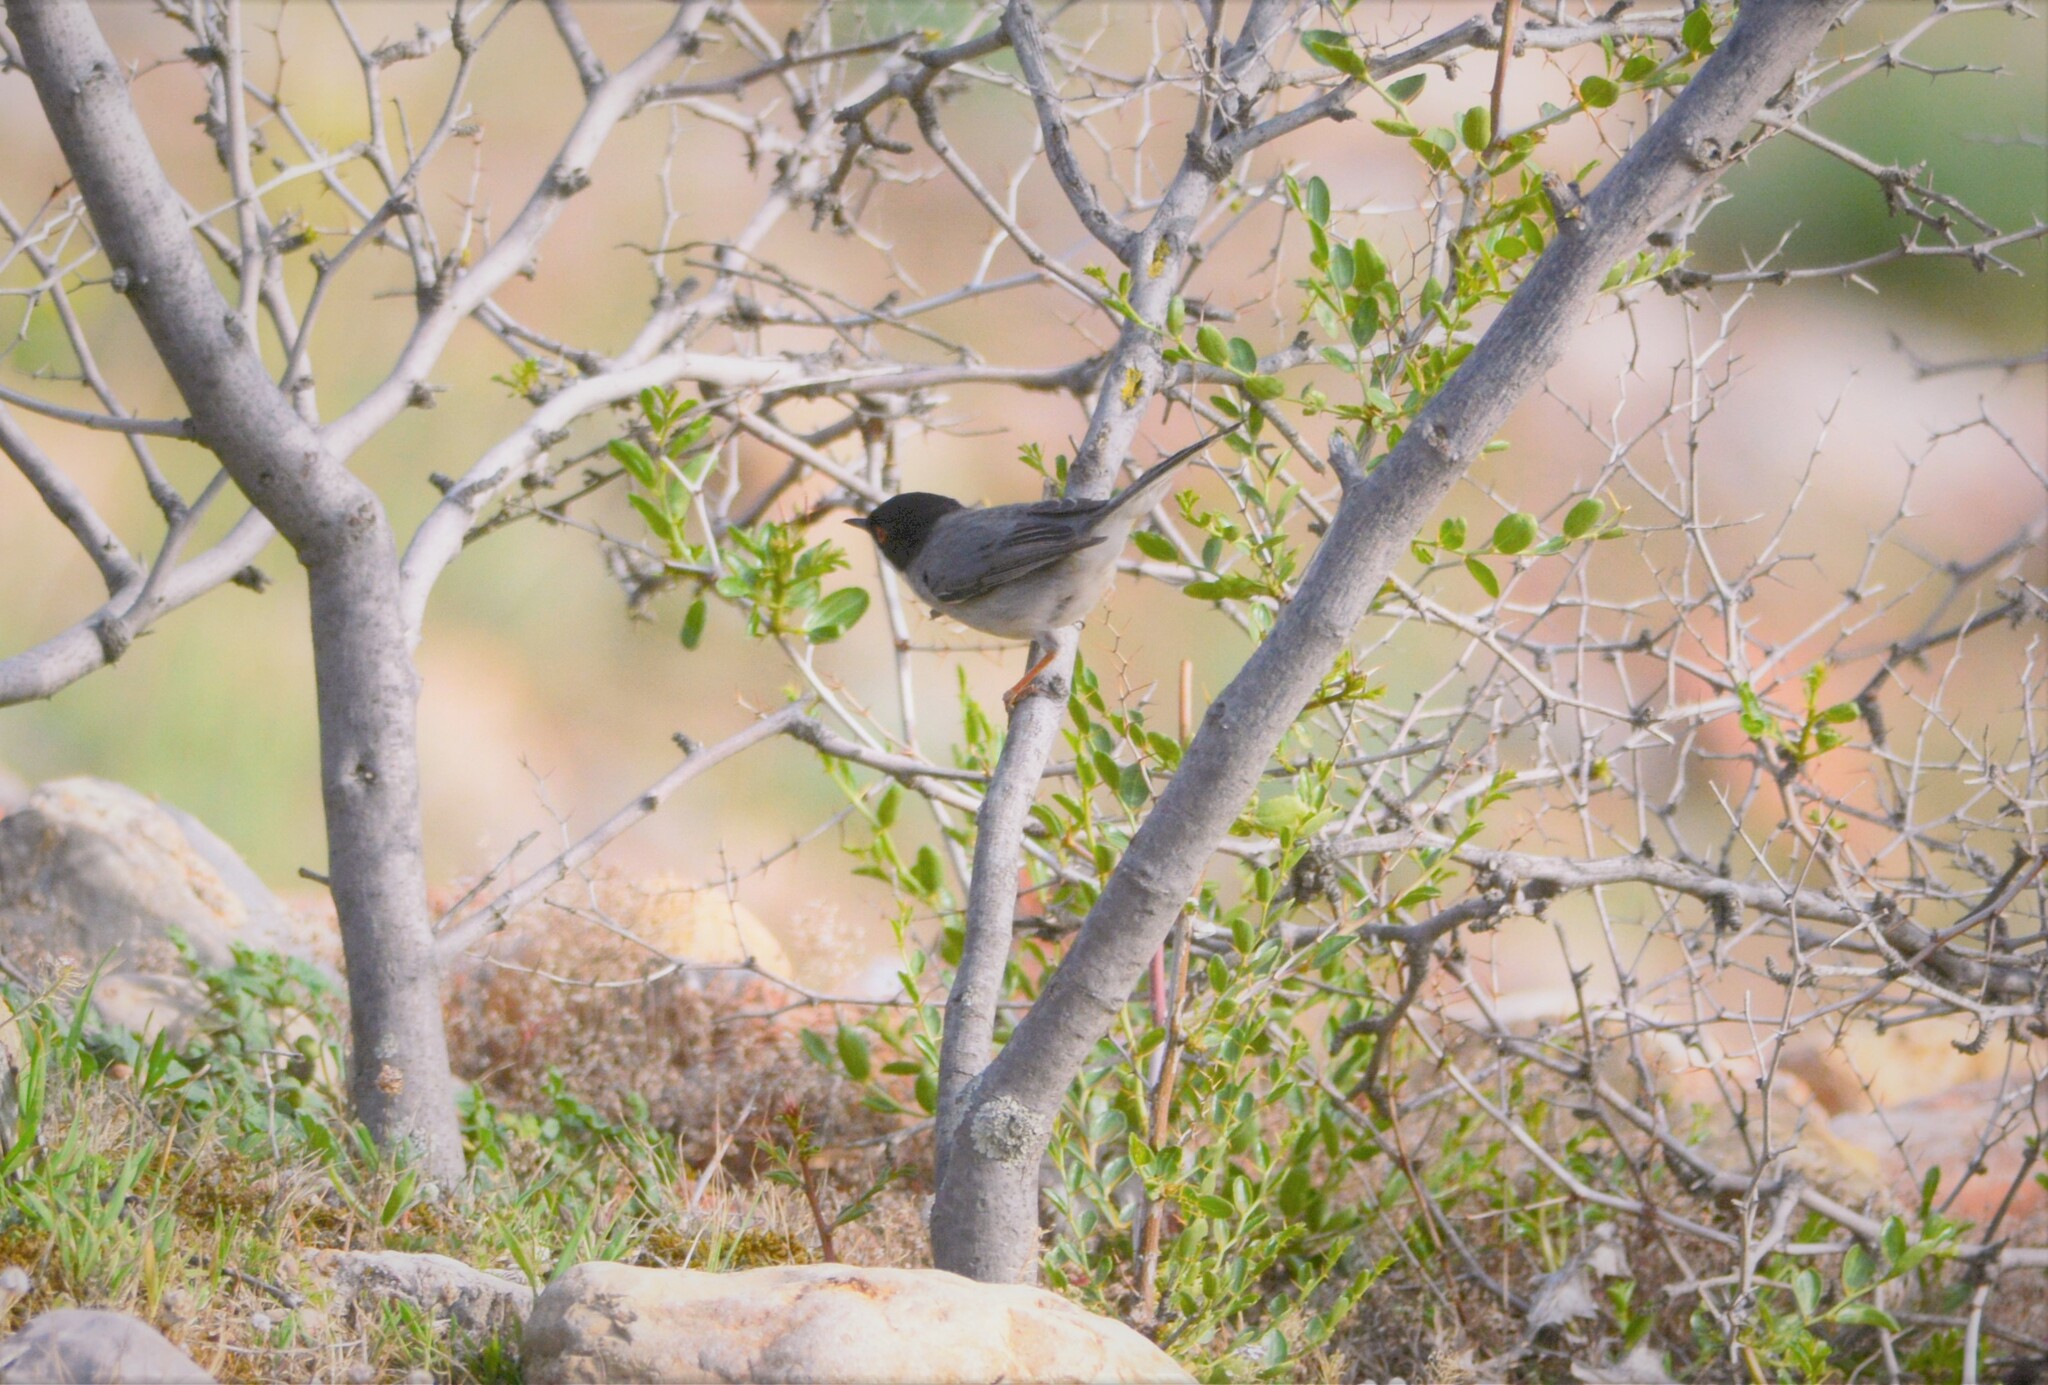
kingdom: Animalia
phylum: Chordata
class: Aves
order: Passeriformes
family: Sylviidae
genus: Curruca
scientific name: Curruca melanocephala
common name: Sardinian warbler
